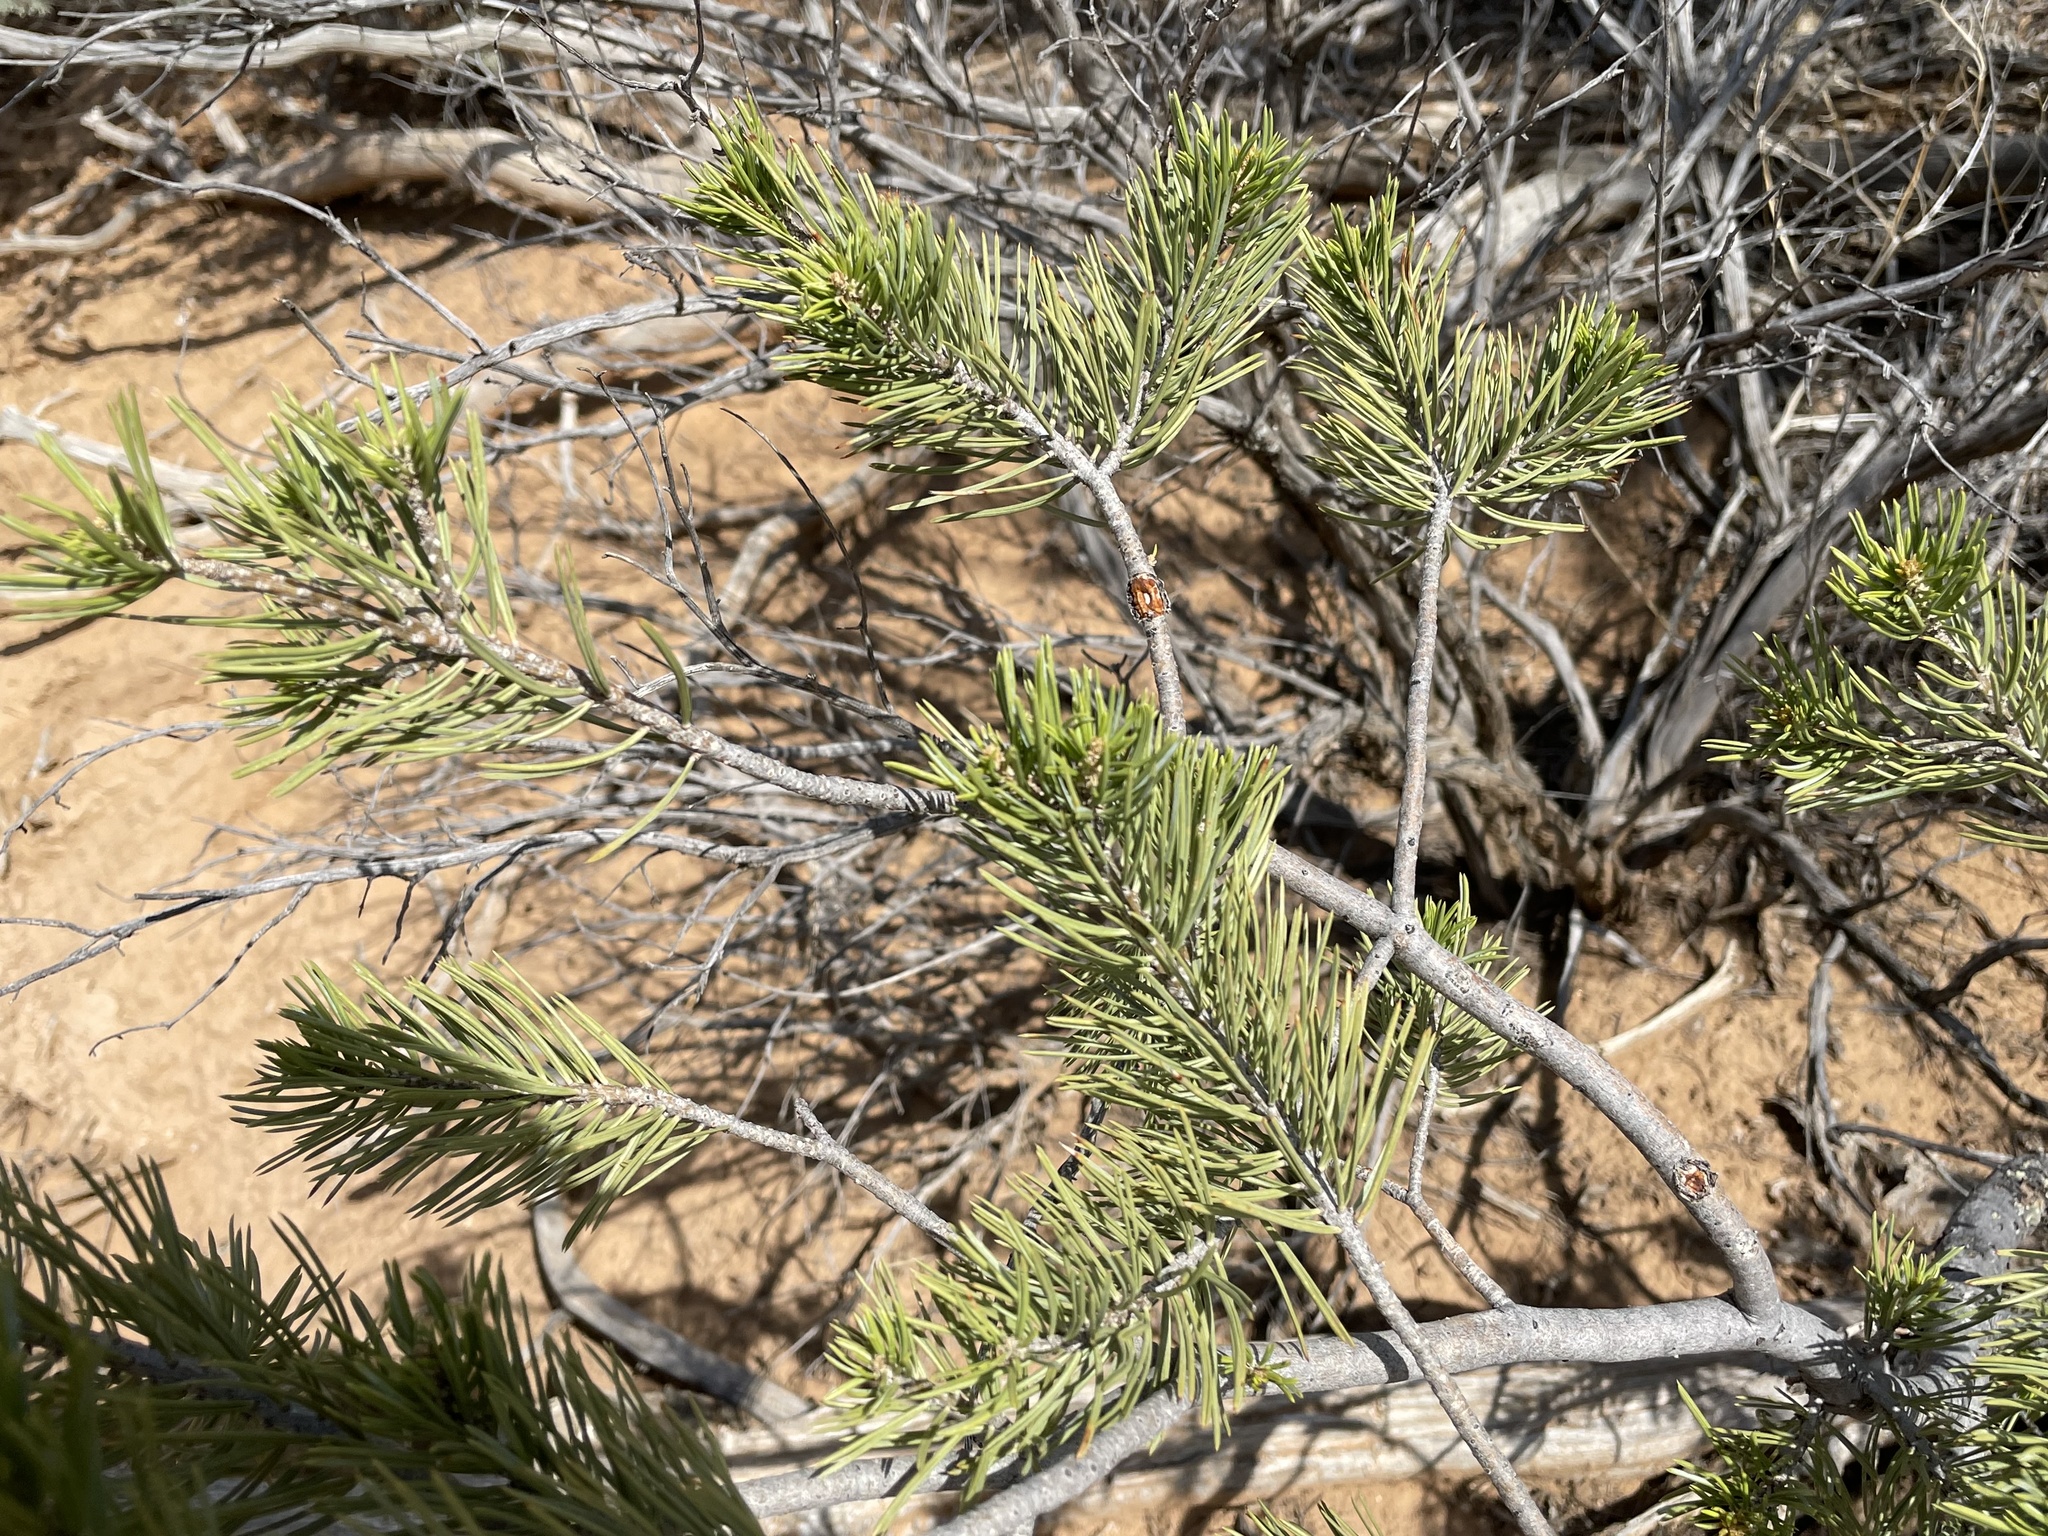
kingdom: Plantae
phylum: Tracheophyta
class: Pinopsida
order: Pinales
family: Pinaceae
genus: Pinus
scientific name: Pinus edulis
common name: Colorado pinyon
